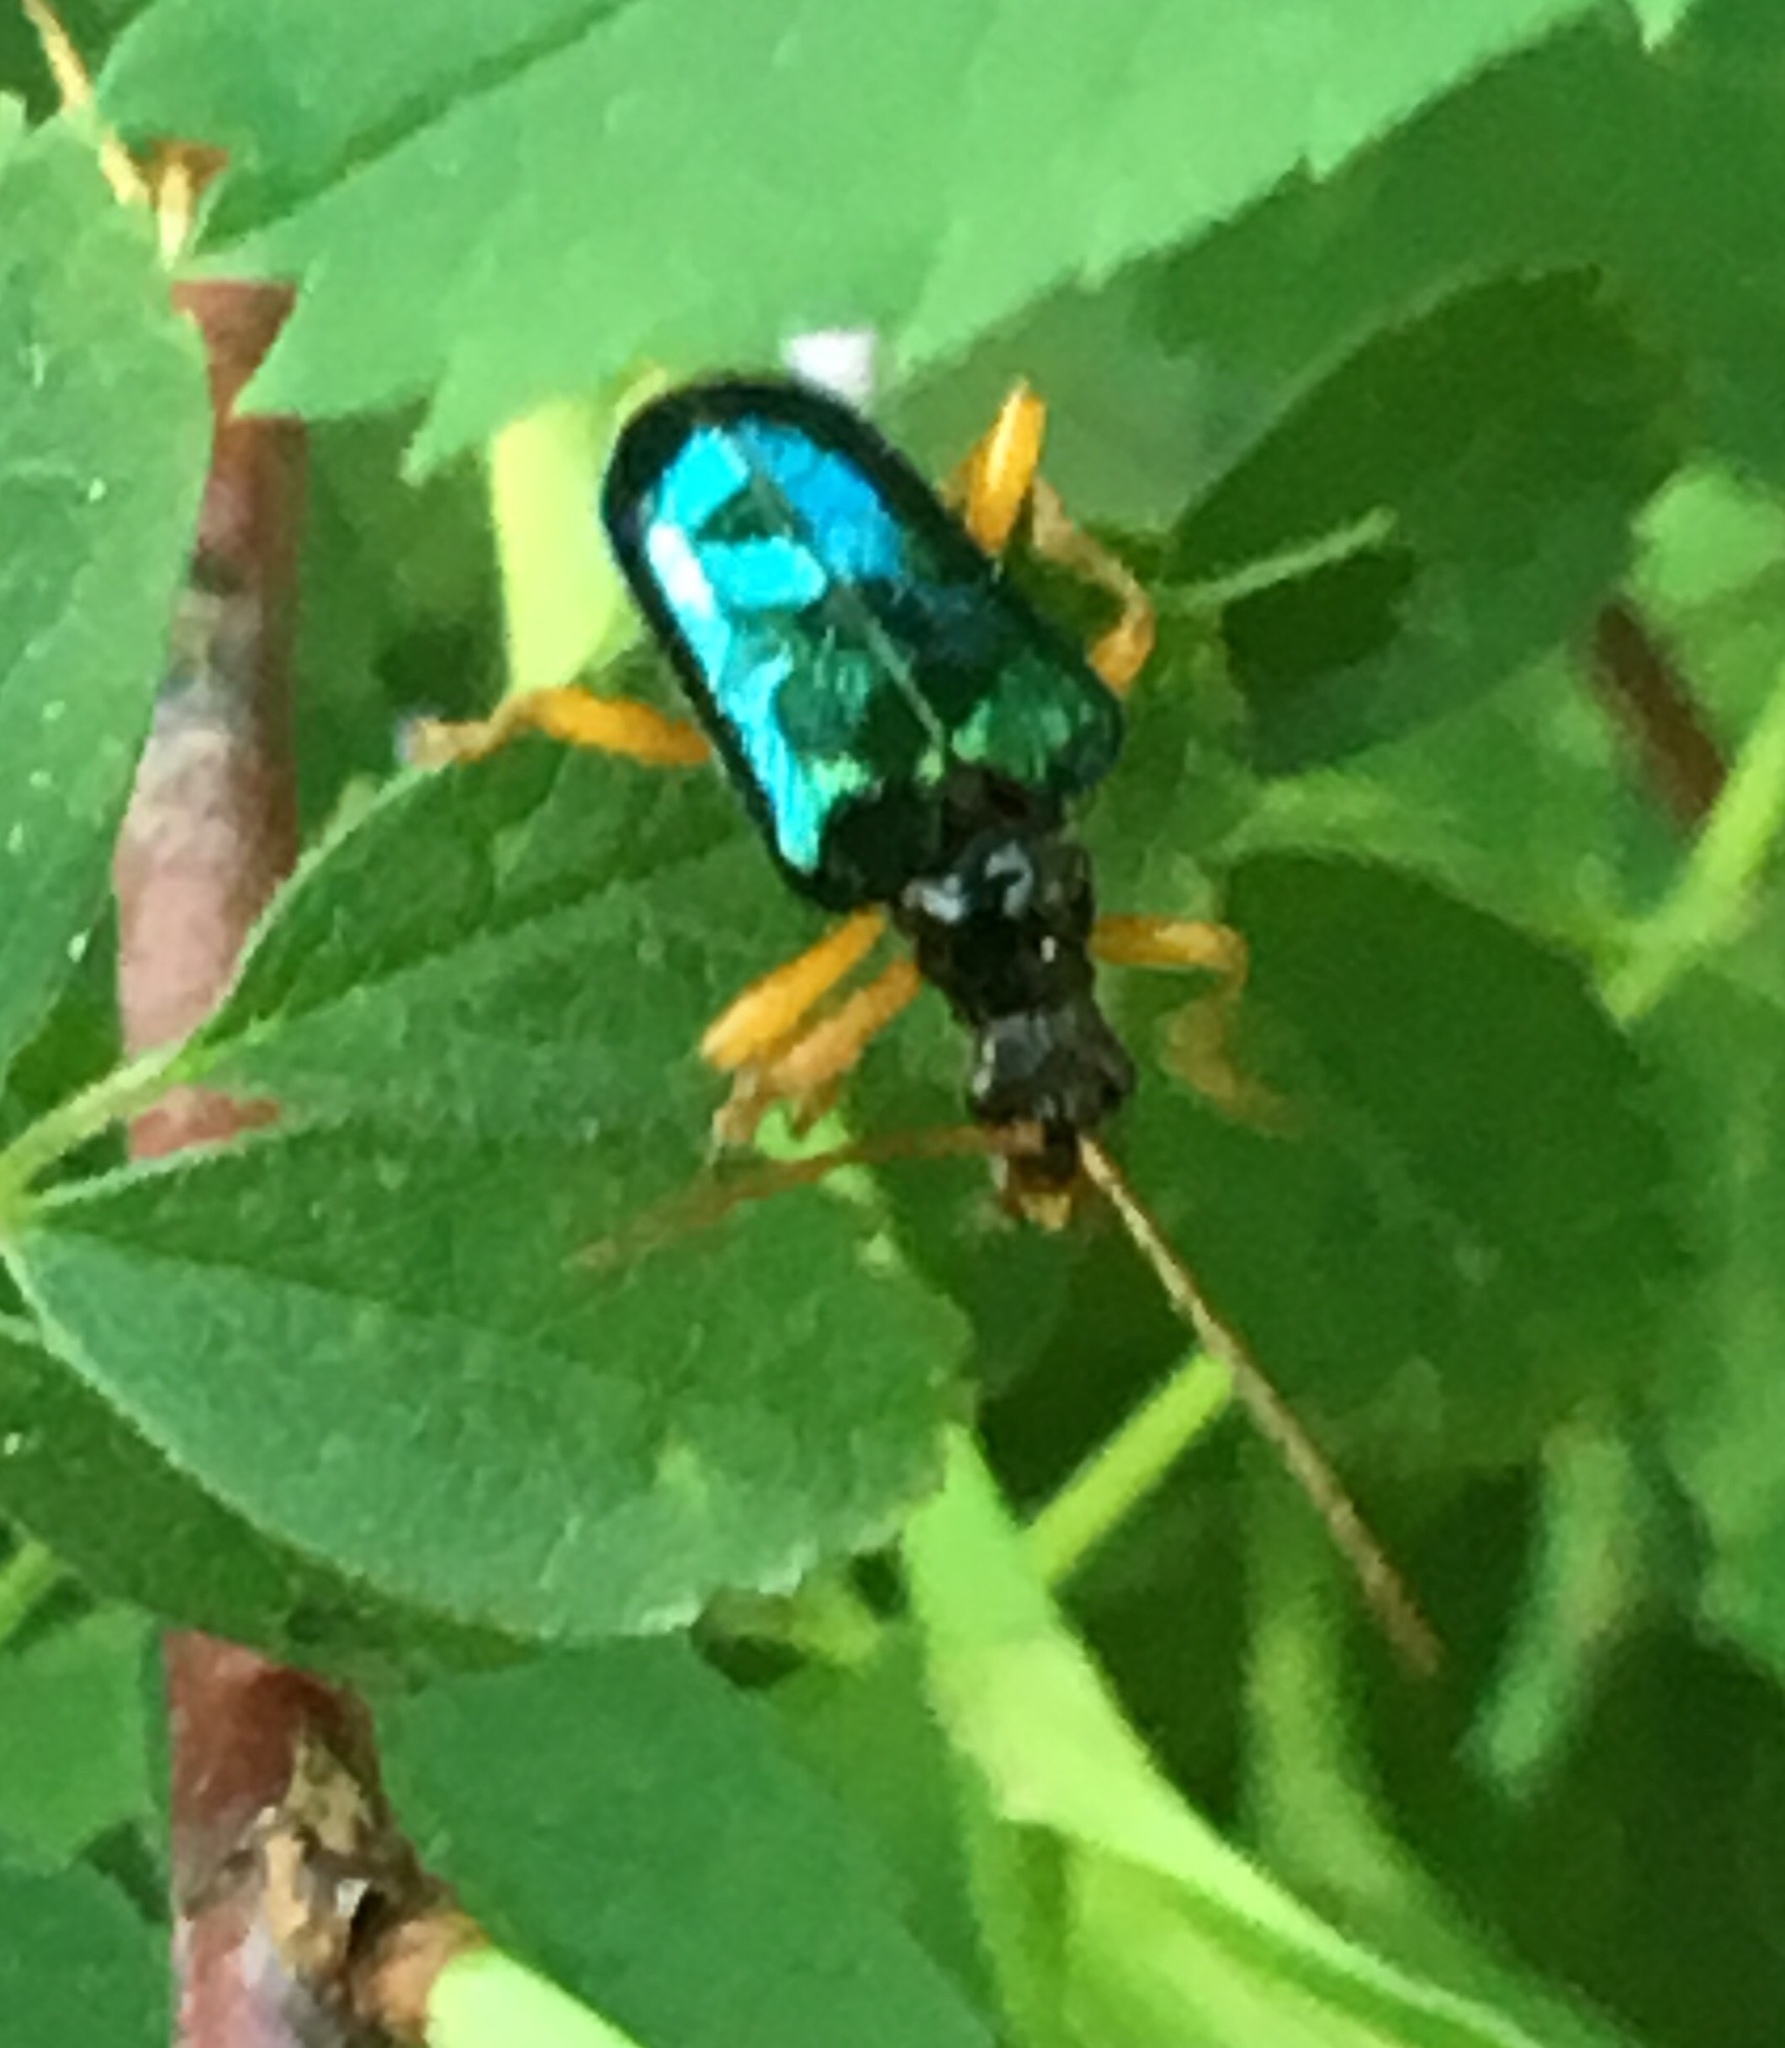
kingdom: Animalia
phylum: Arthropoda
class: Insecta
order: Coleoptera
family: Cerambycidae
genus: Gaurotes
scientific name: Gaurotes cyanipennis
